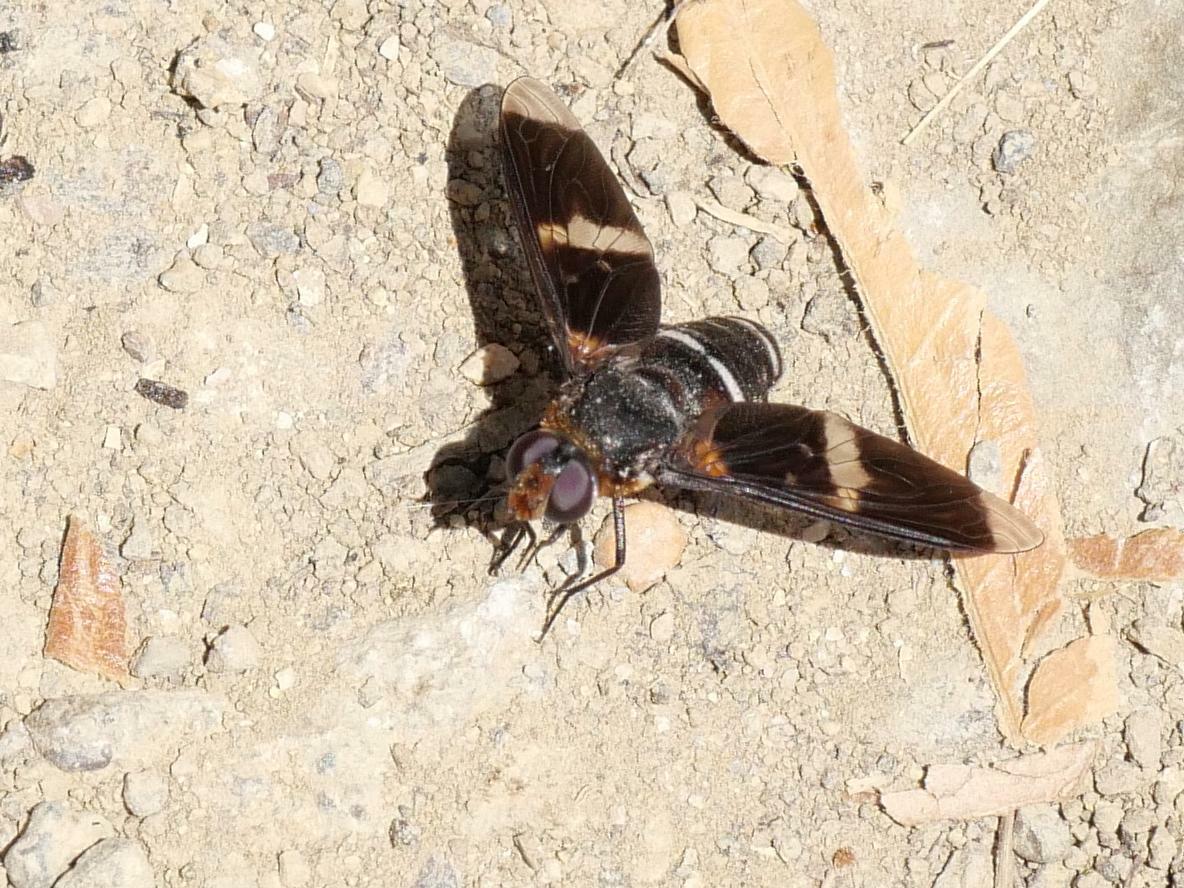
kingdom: Animalia
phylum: Arthropoda
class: Insecta
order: Diptera
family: Bombyliidae
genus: Exoprosopa
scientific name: Exoprosopa pectoralis
